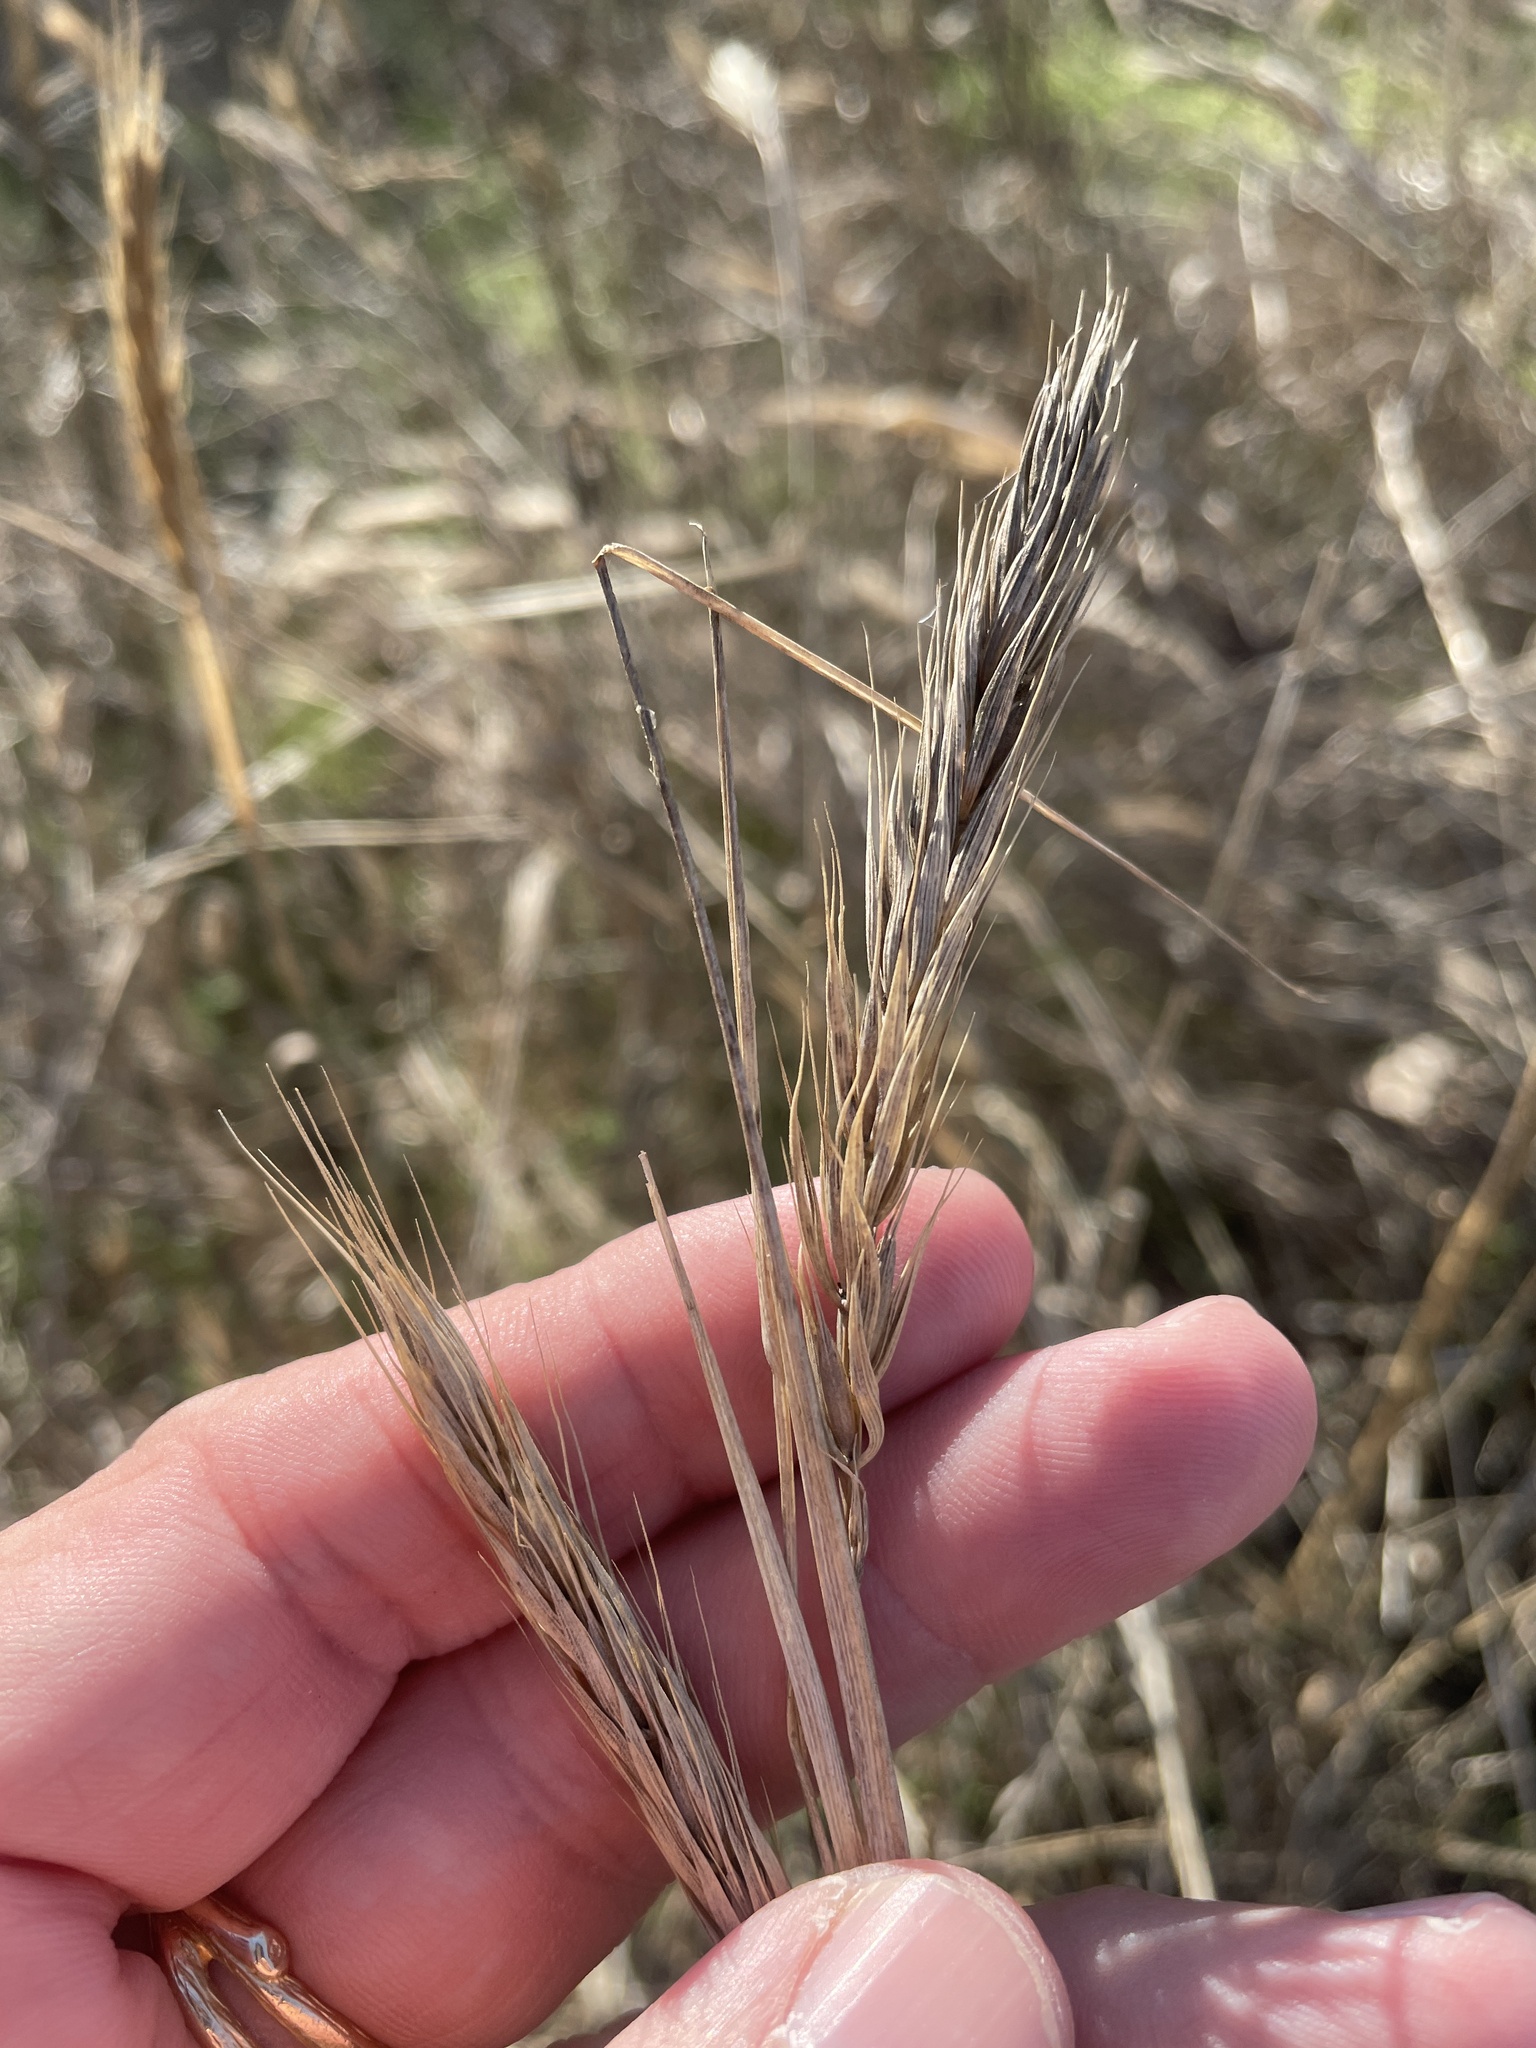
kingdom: Plantae
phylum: Tracheophyta
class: Liliopsida
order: Poales
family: Poaceae
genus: Elymus
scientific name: Elymus virginicus
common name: Common eastern wildrye
